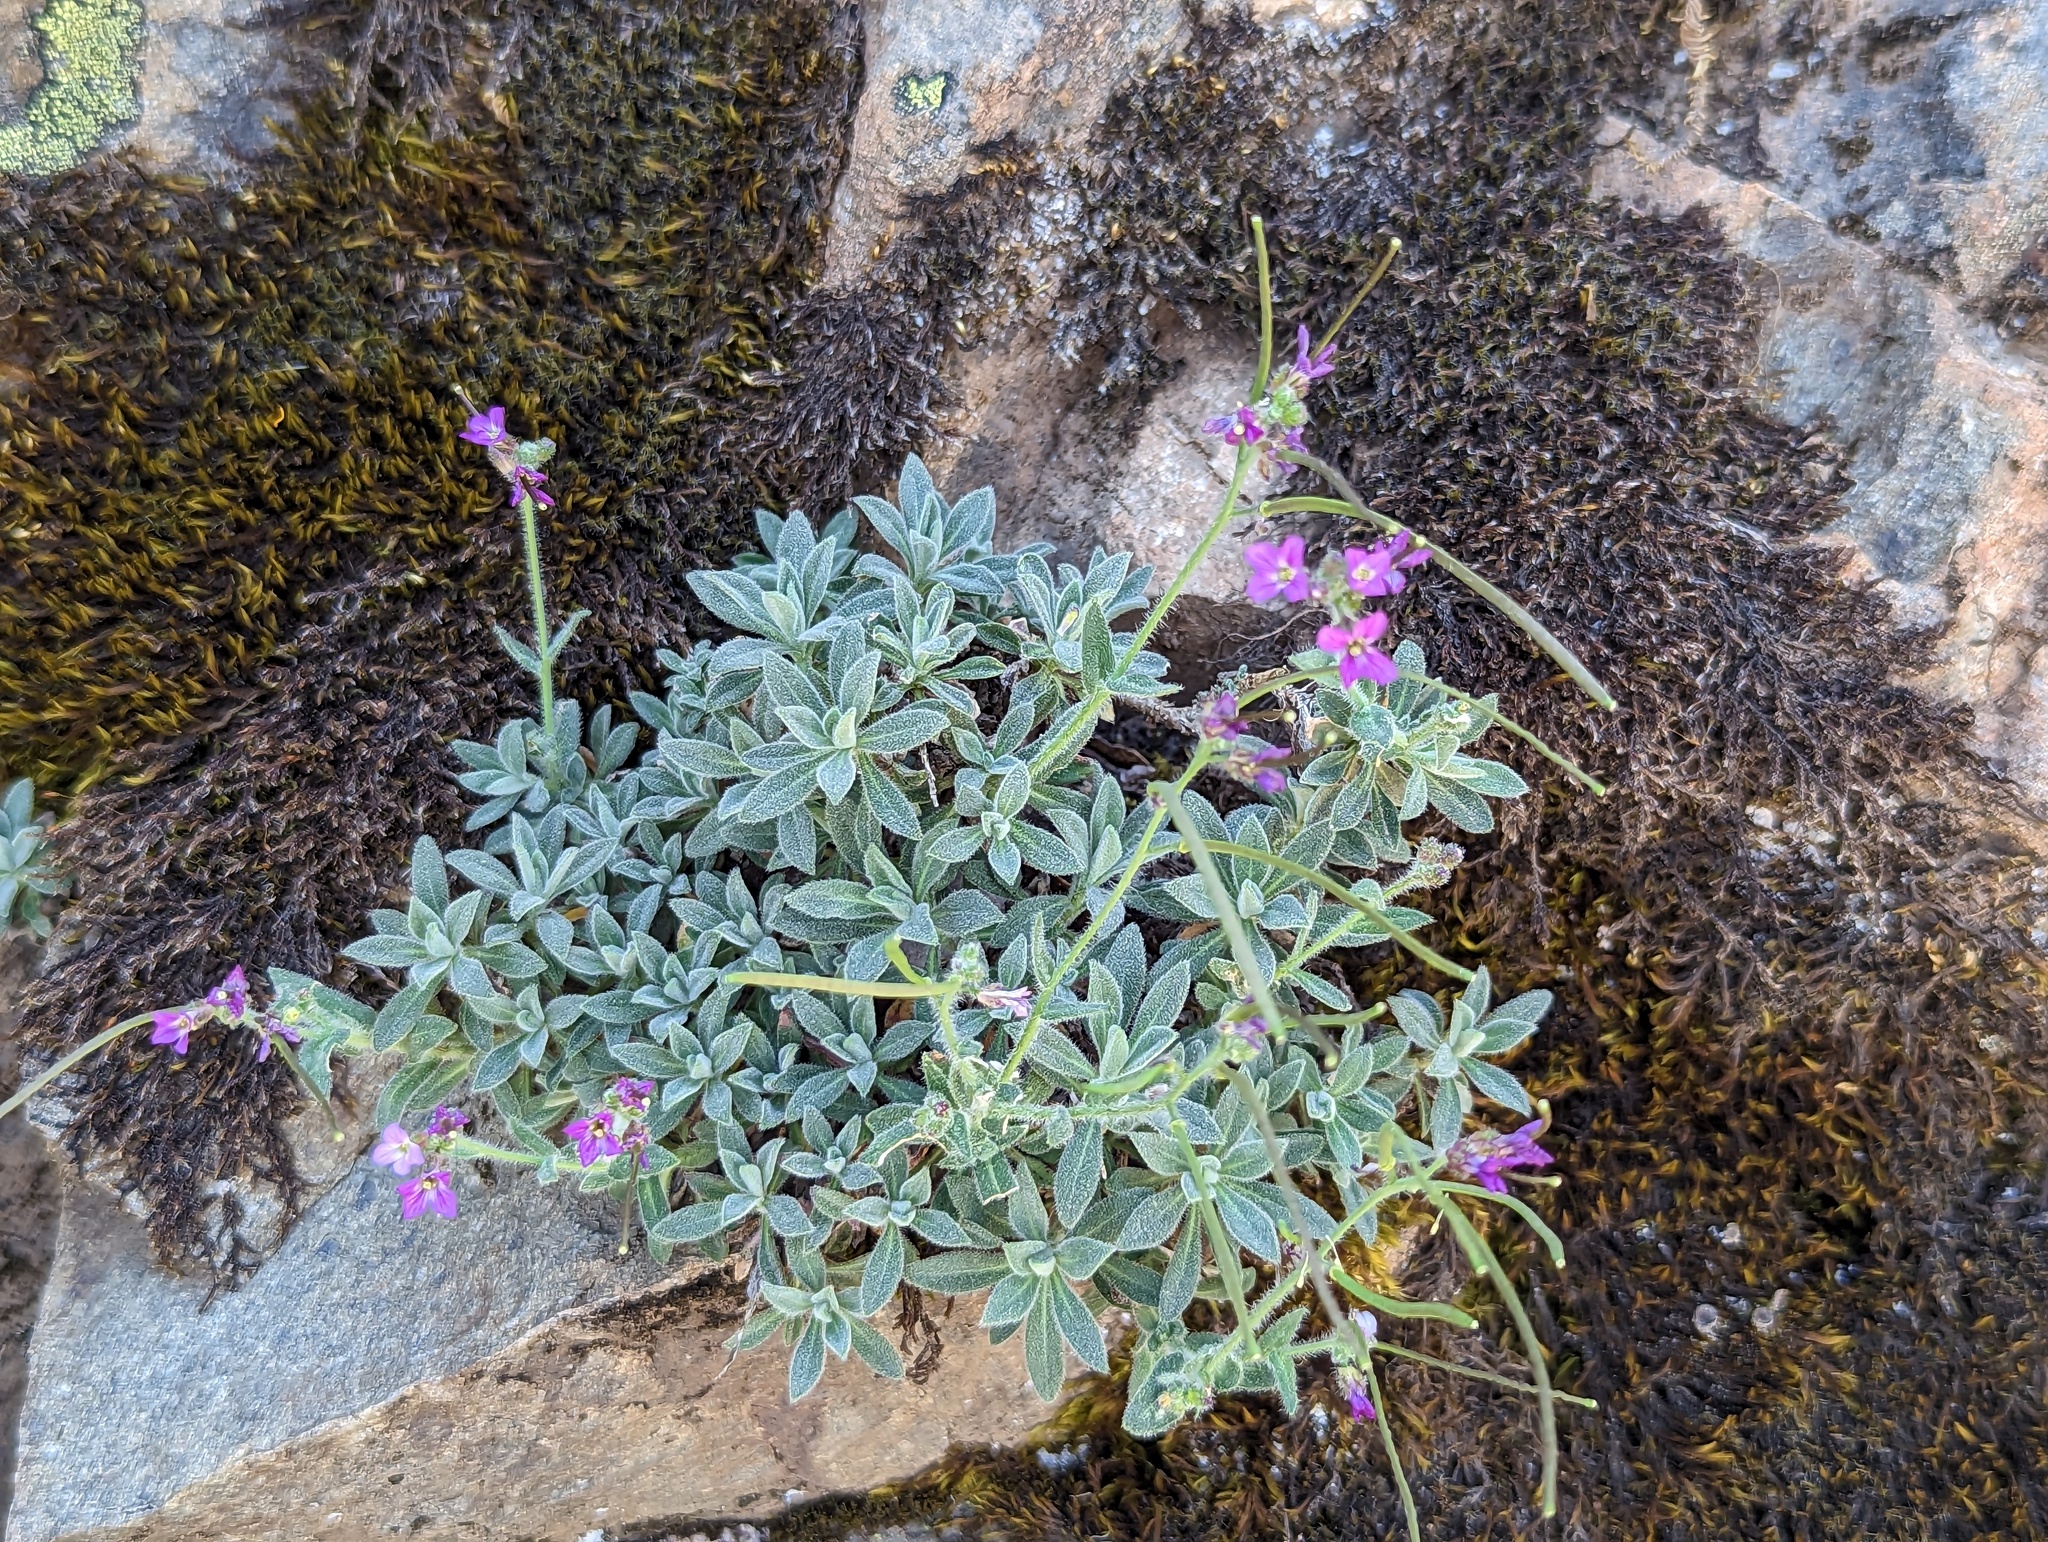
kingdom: Plantae
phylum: Tracheophyta
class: Magnoliopsida
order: Brassicales
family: Brassicaceae
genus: Boechera
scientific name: Boechera breweri
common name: Brewer's rockcress
